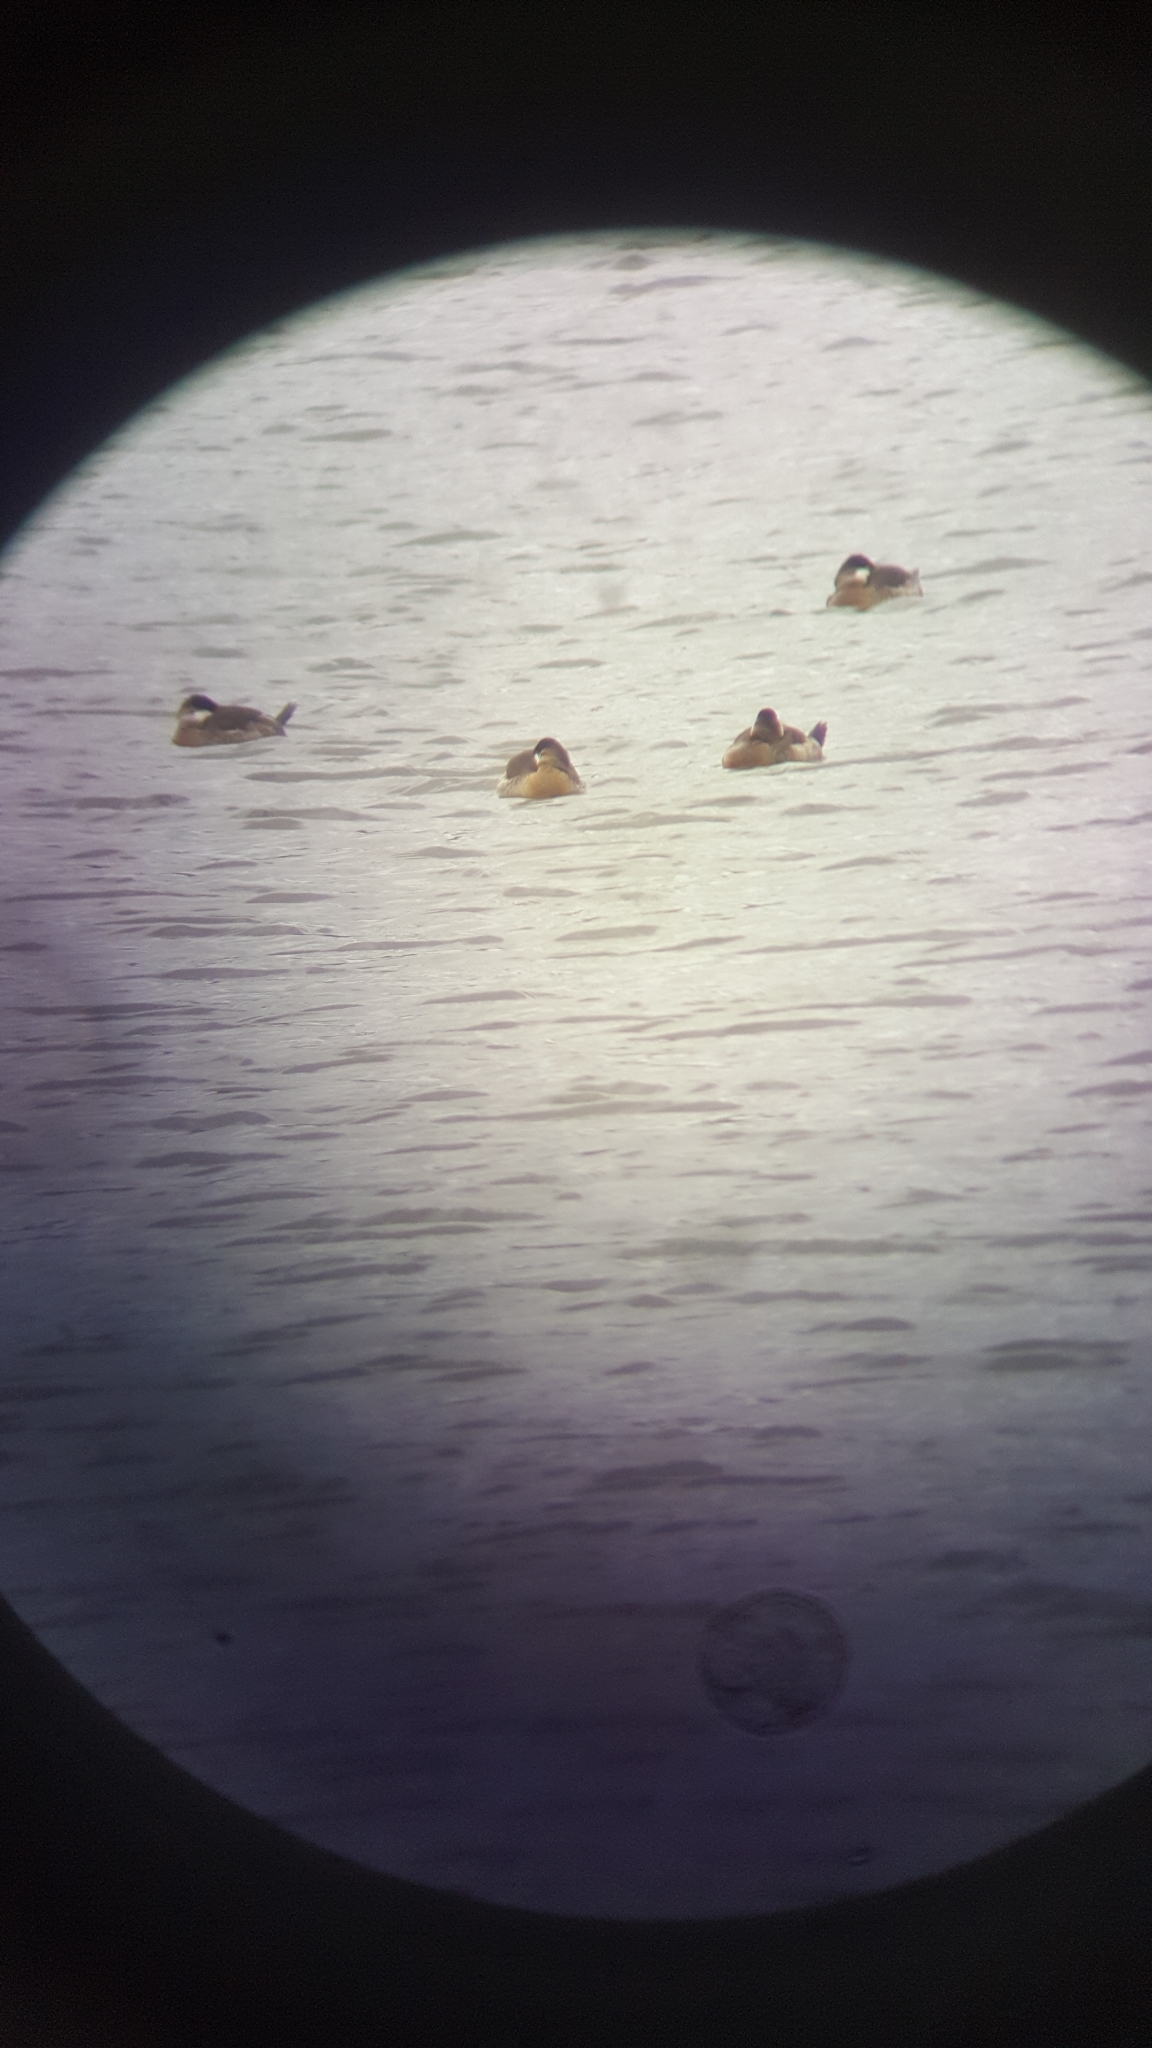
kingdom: Animalia
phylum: Chordata
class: Aves
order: Anseriformes
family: Anatidae
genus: Oxyura
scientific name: Oxyura jamaicensis
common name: Ruddy duck
